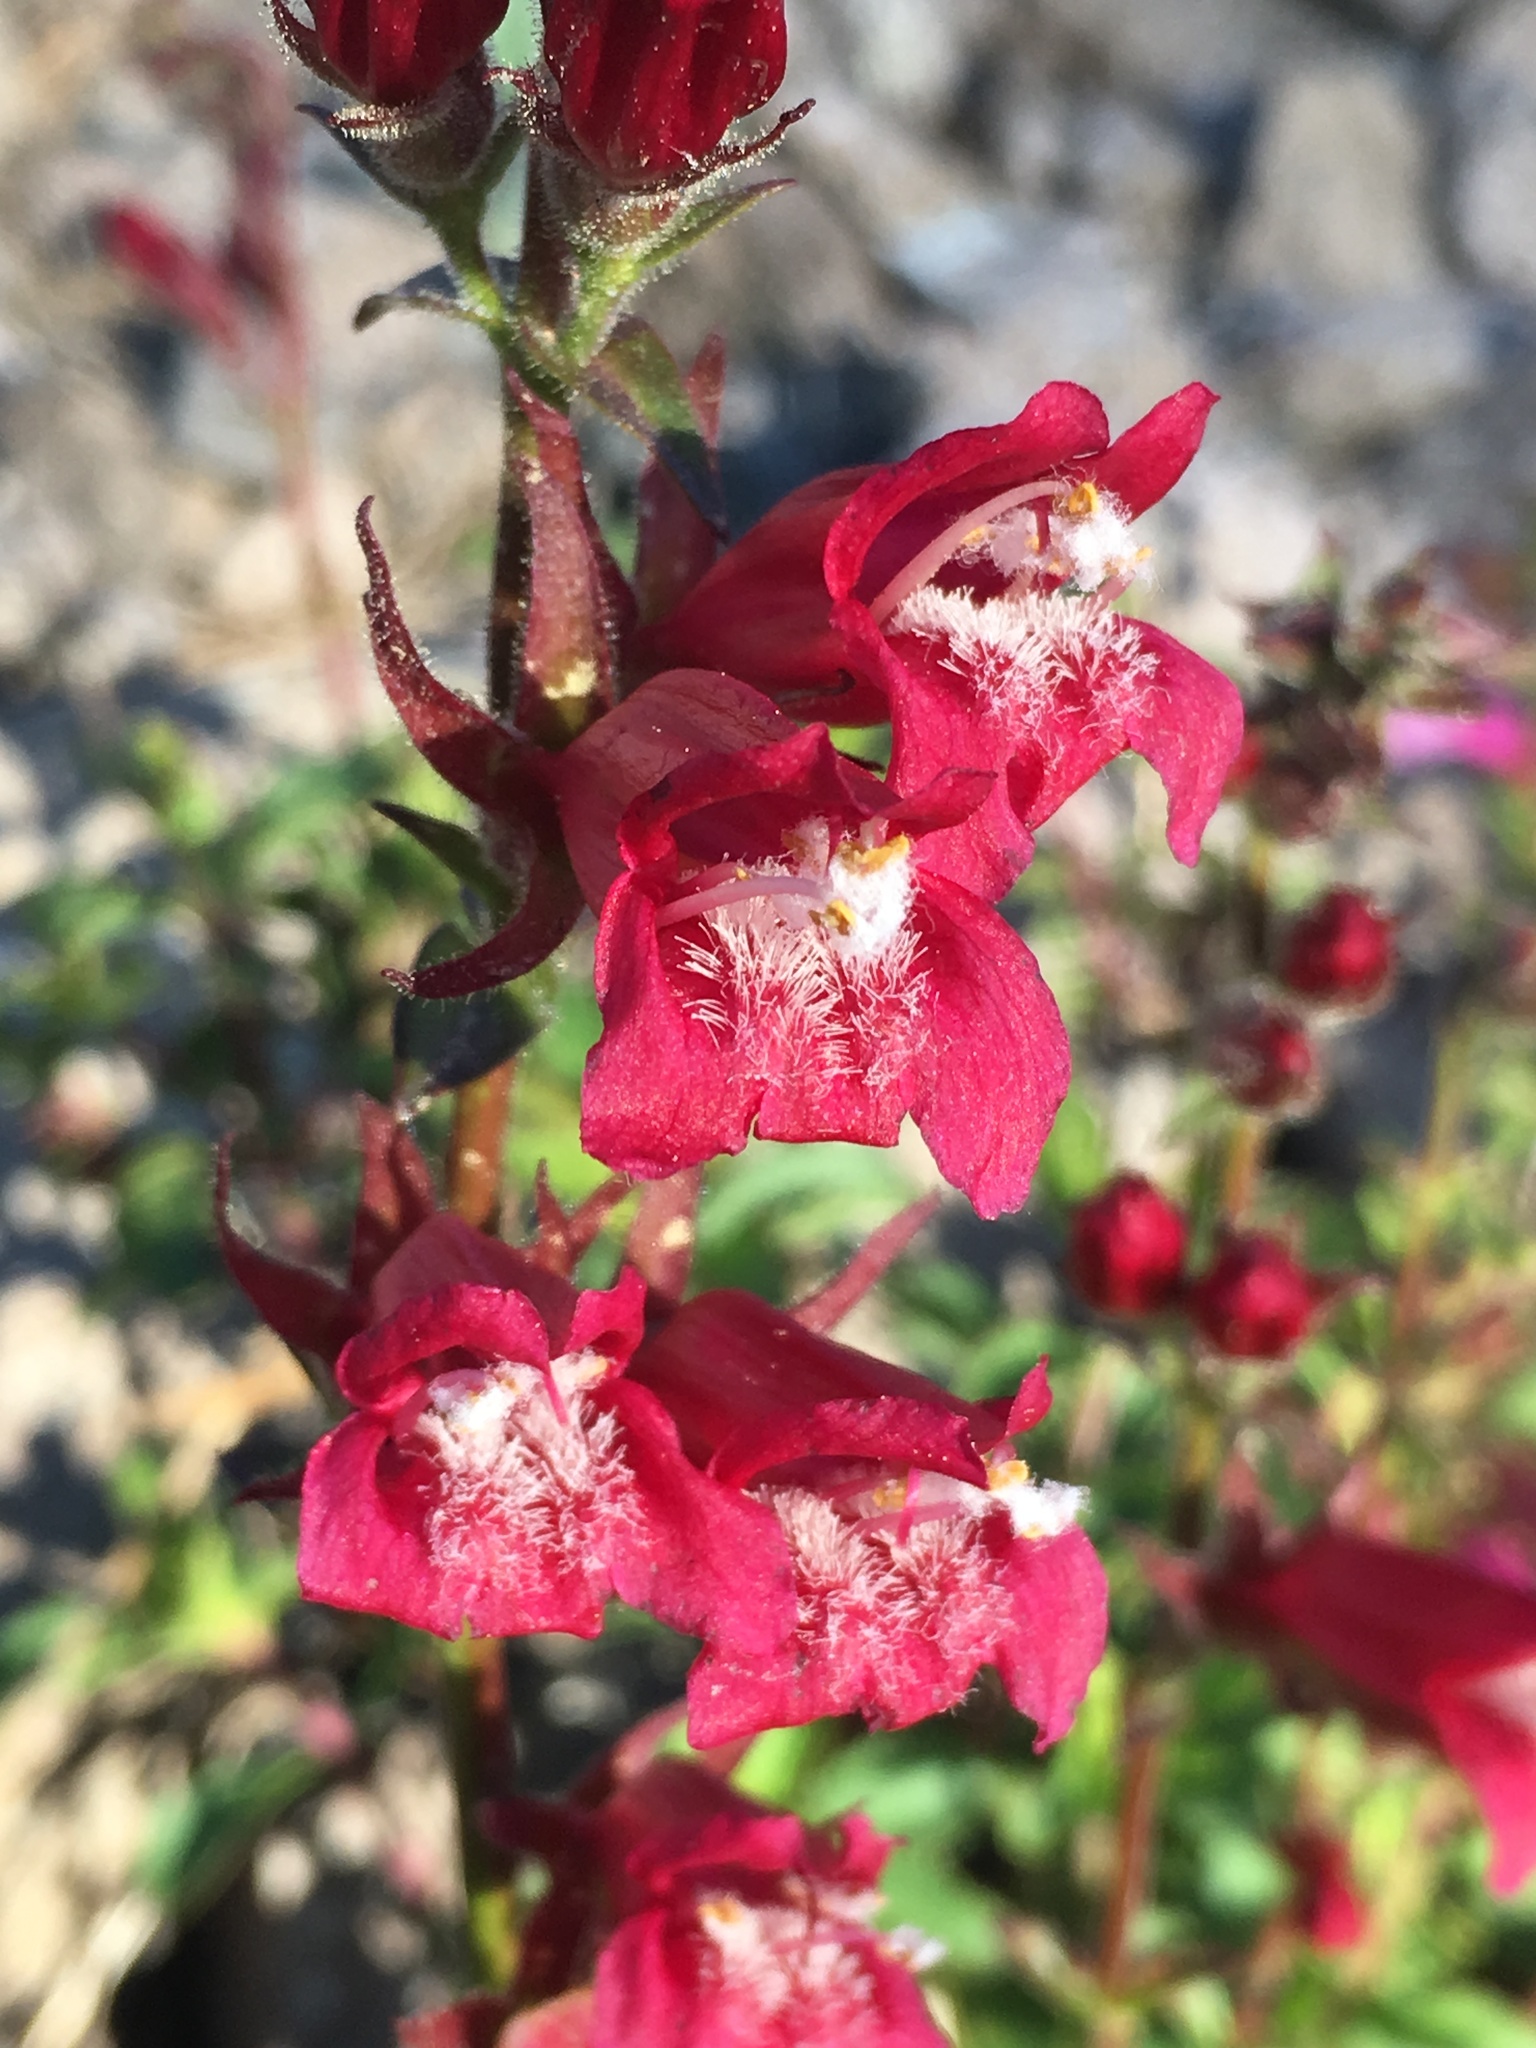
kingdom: Plantae
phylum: Tracheophyta
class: Magnoliopsida
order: Lamiales
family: Plantaginaceae
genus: Penstemon
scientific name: Penstemon newberryi
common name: Mountain-pride
